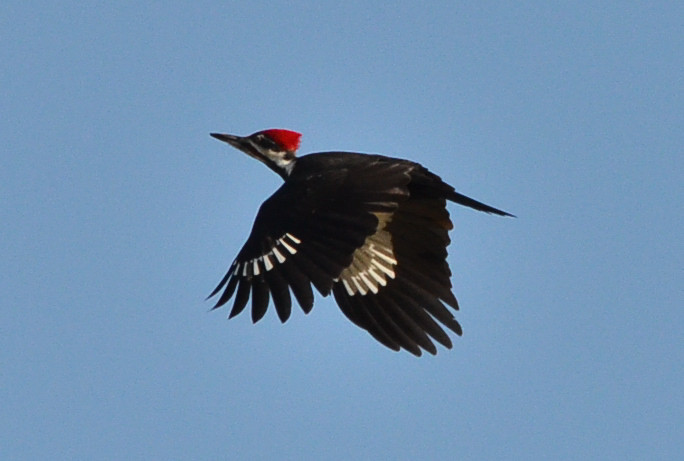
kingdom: Animalia
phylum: Chordata
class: Aves
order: Piciformes
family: Picidae
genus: Dryocopus
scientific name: Dryocopus pileatus
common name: Pileated woodpecker
